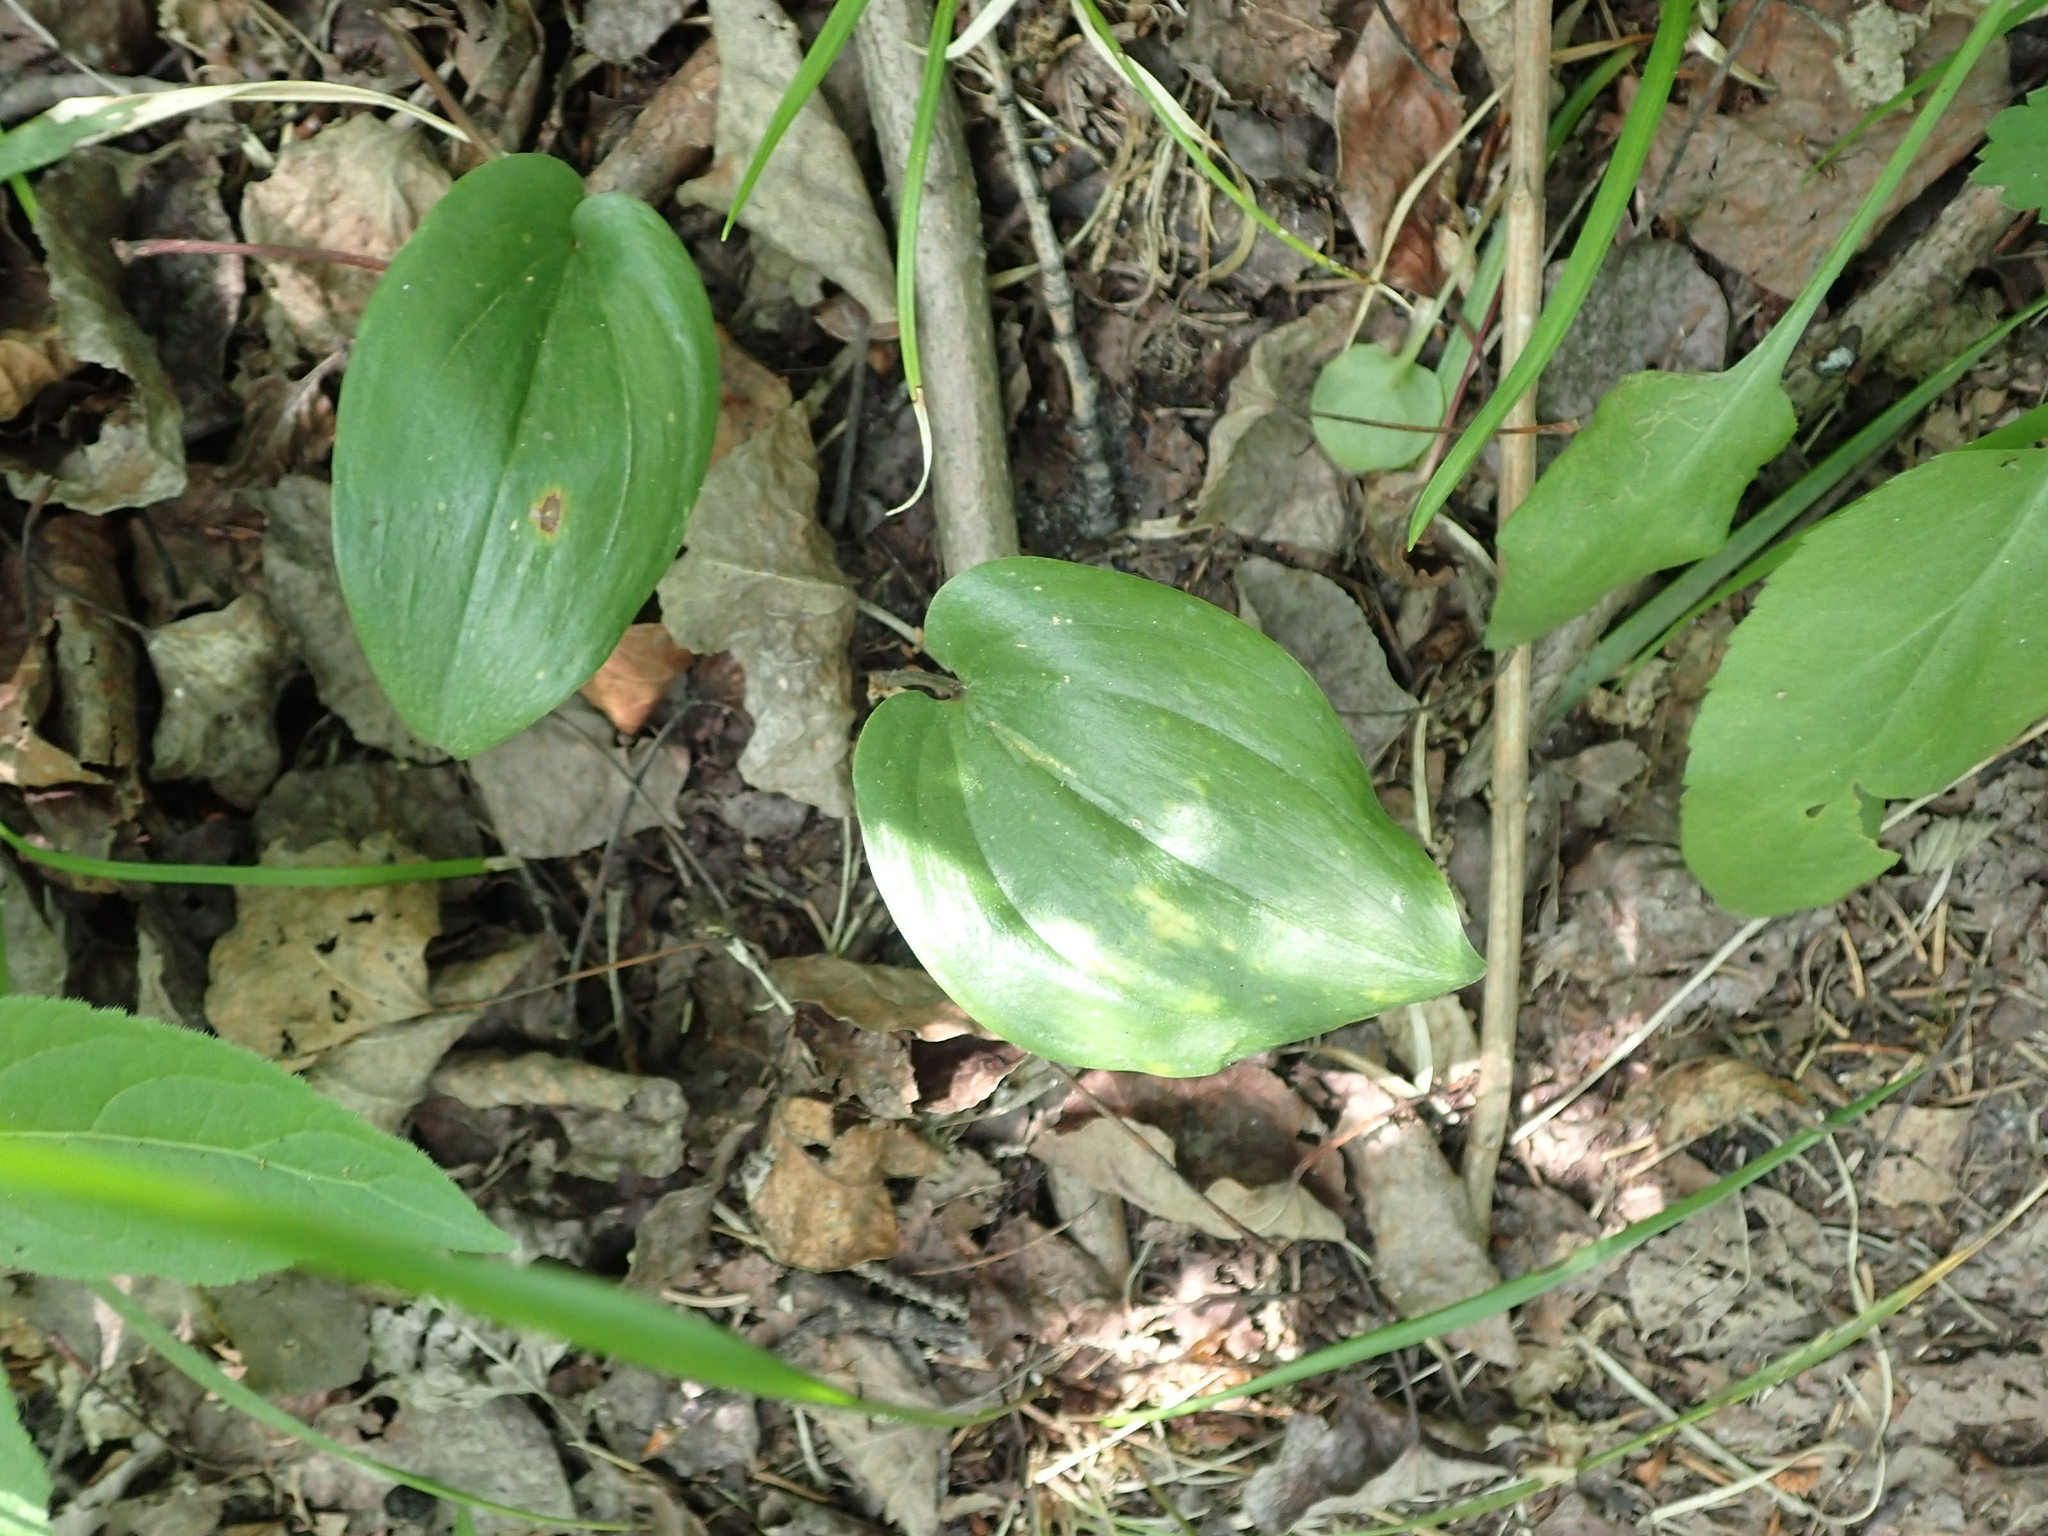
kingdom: Plantae
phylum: Tracheophyta
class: Liliopsida
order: Asparagales
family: Asparagaceae
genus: Maianthemum
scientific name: Maianthemum canadense
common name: False lily-of-the-valley
